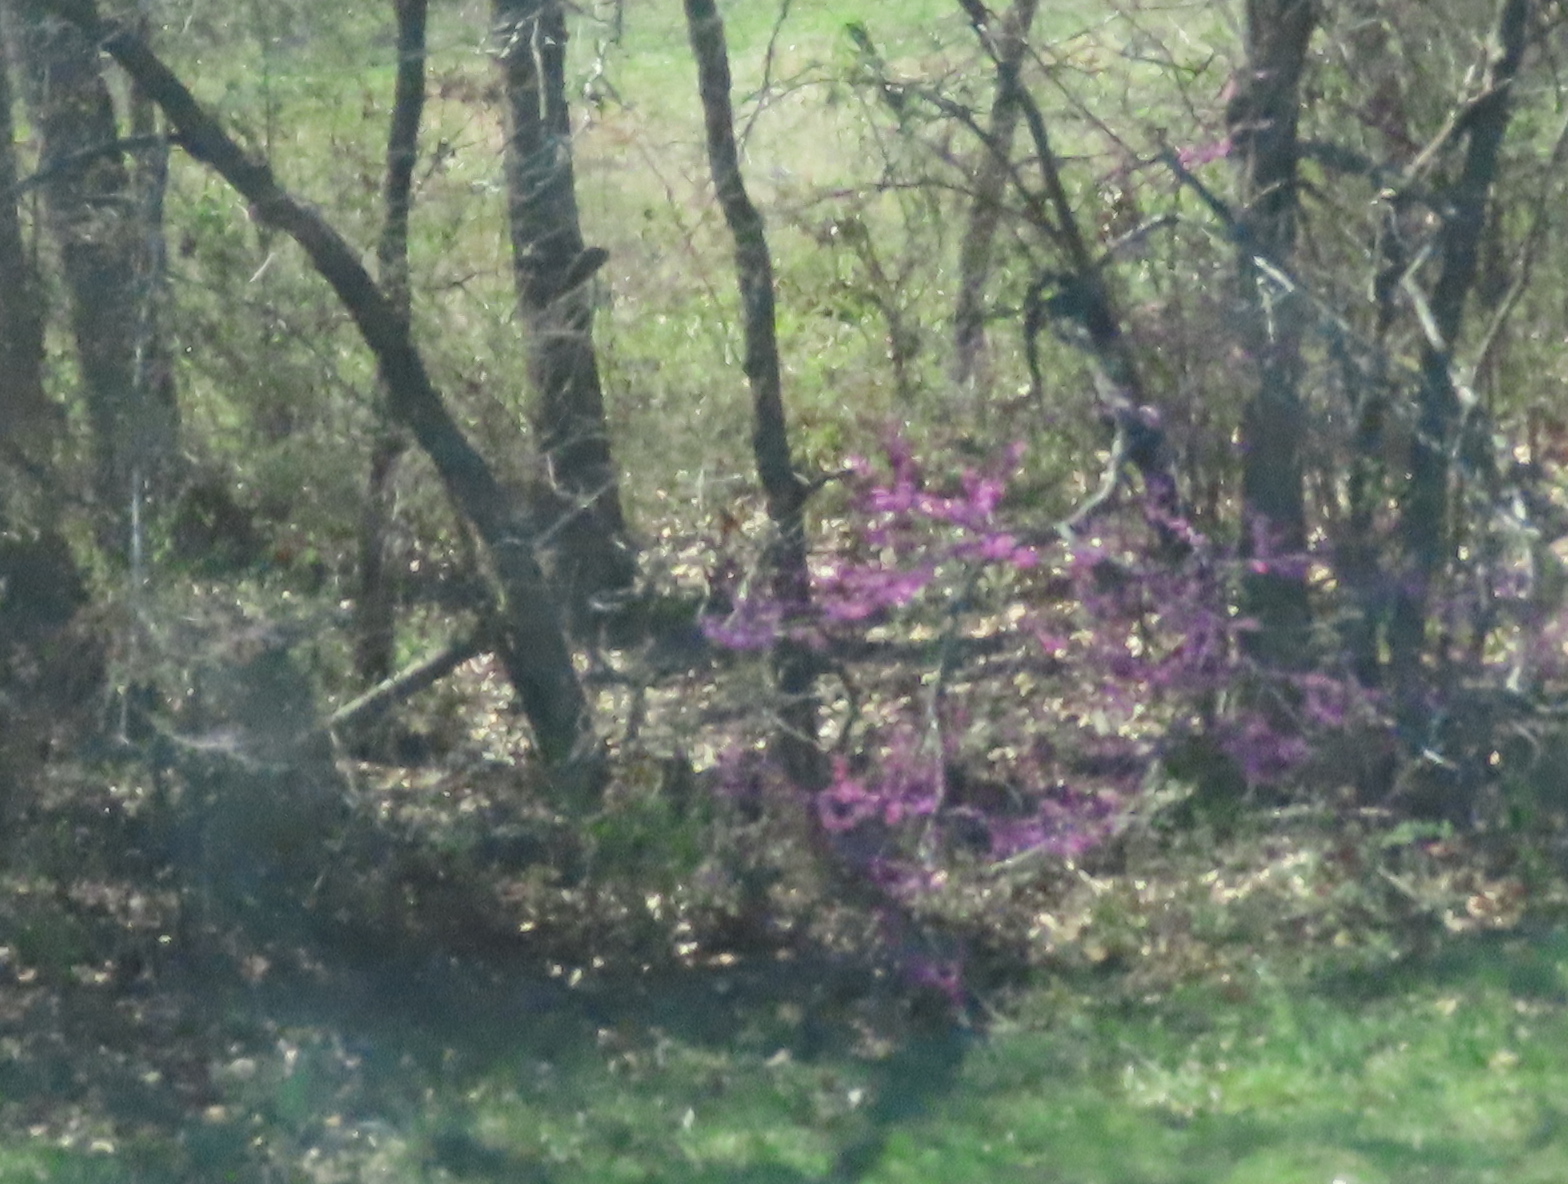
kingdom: Plantae
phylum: Tracheophyta
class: Magnoliopsida
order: Fabales
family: Fabaceae
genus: Cercis
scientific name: Cercis canadensis
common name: Eastern redbud
